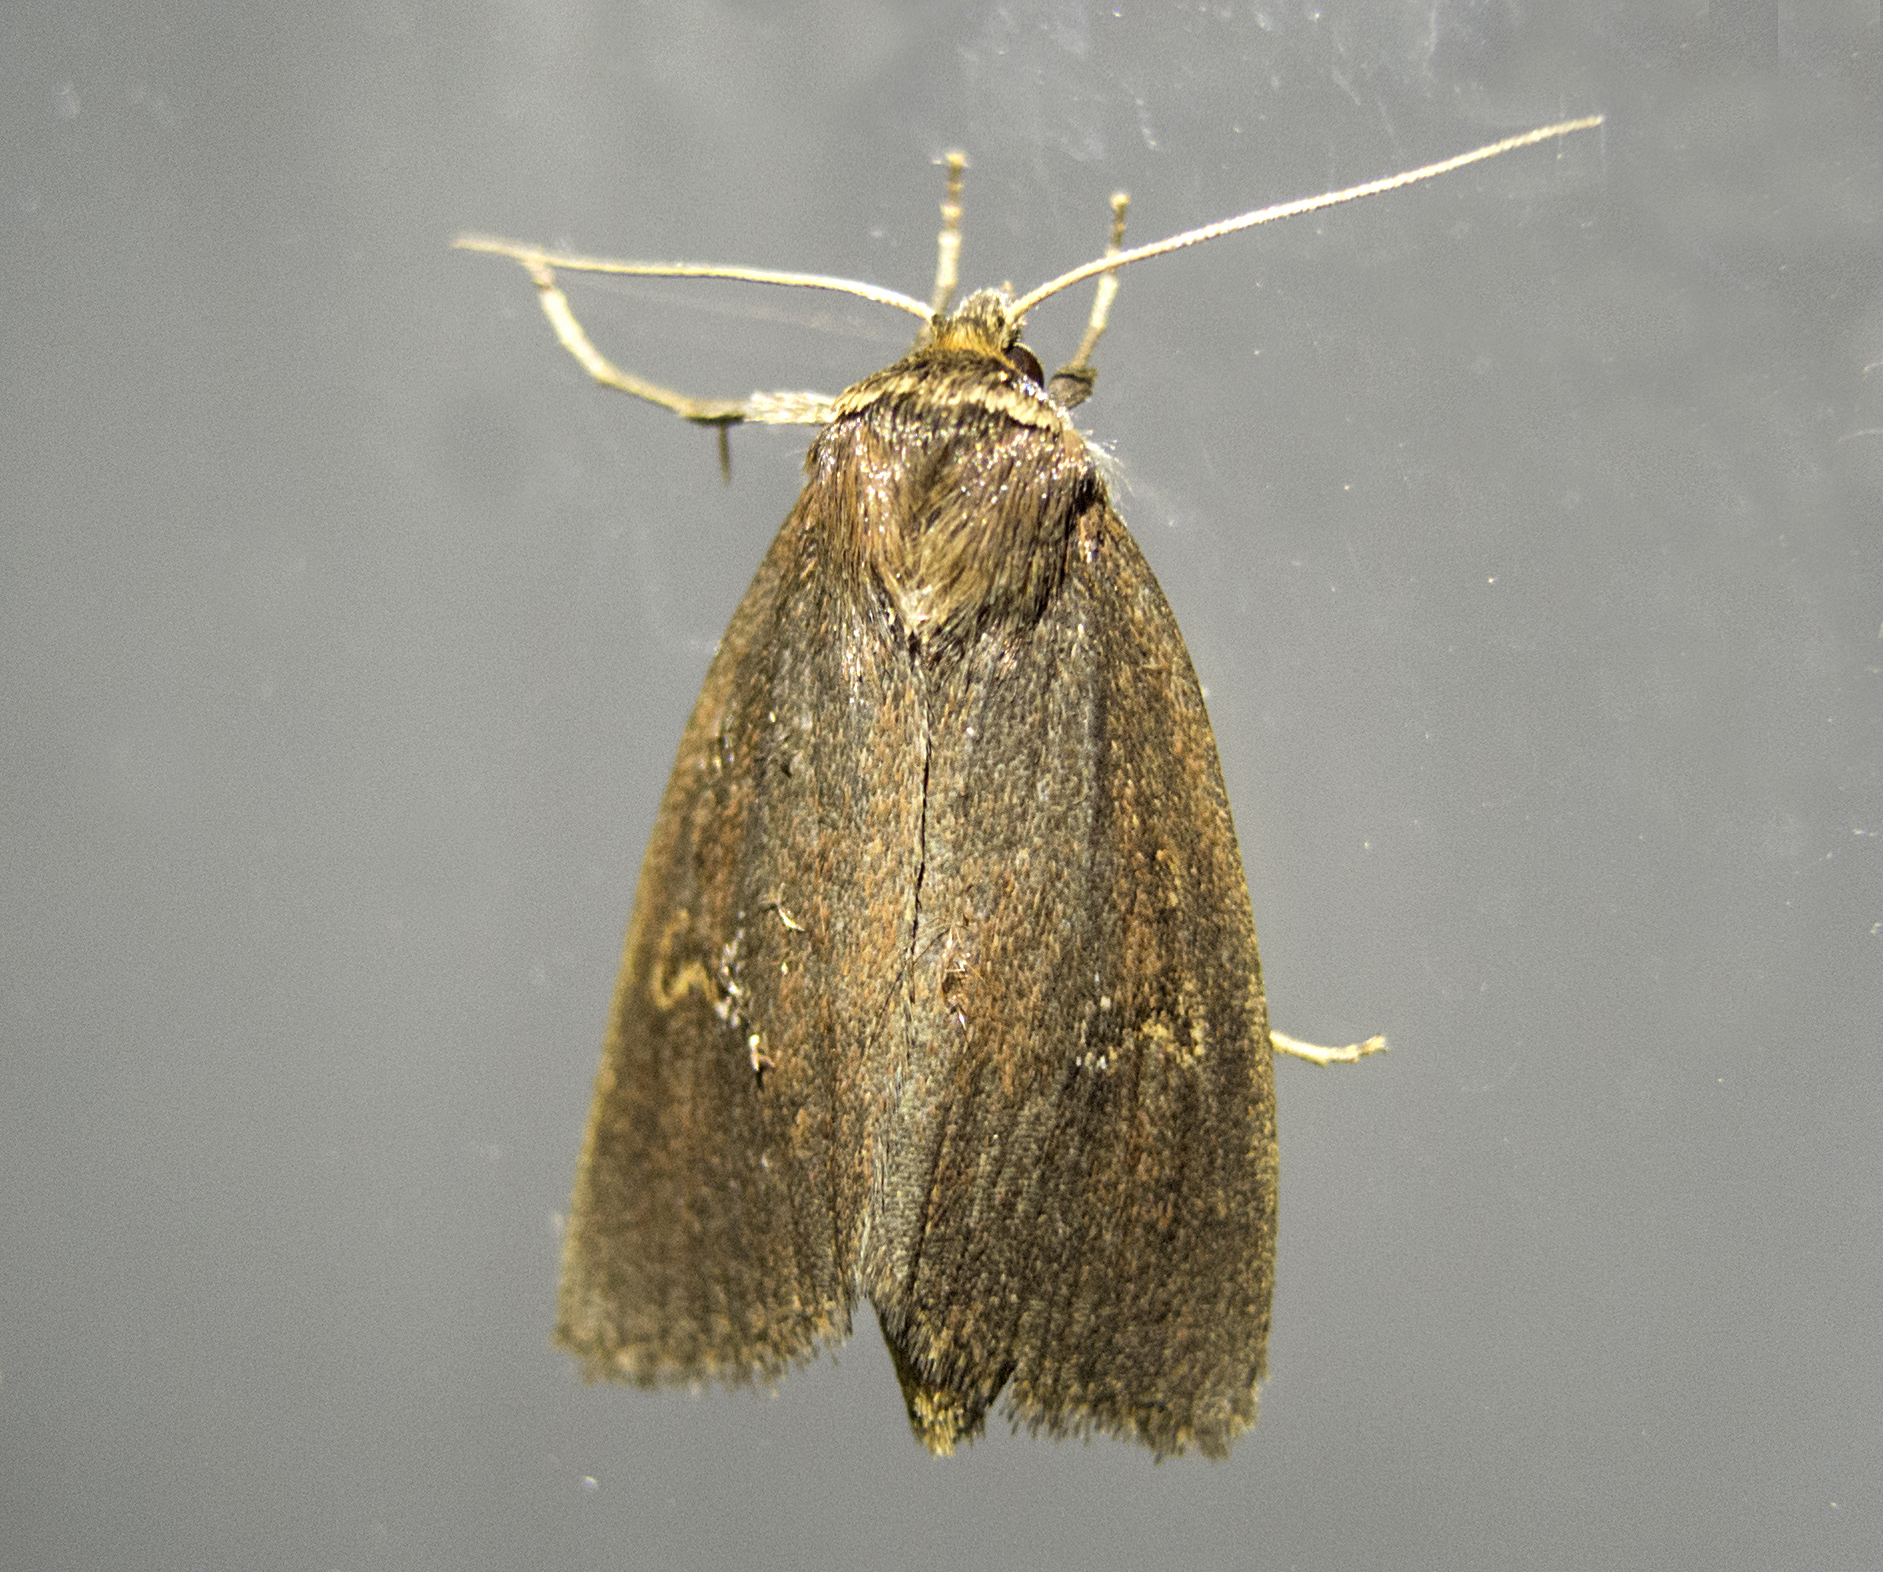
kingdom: Animalia
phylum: Arthropoda
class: Insecta
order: Lepidoptera
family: Noctuidae
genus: Archanara
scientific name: Archanara dissoluta
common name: Brown-veined wainscot
